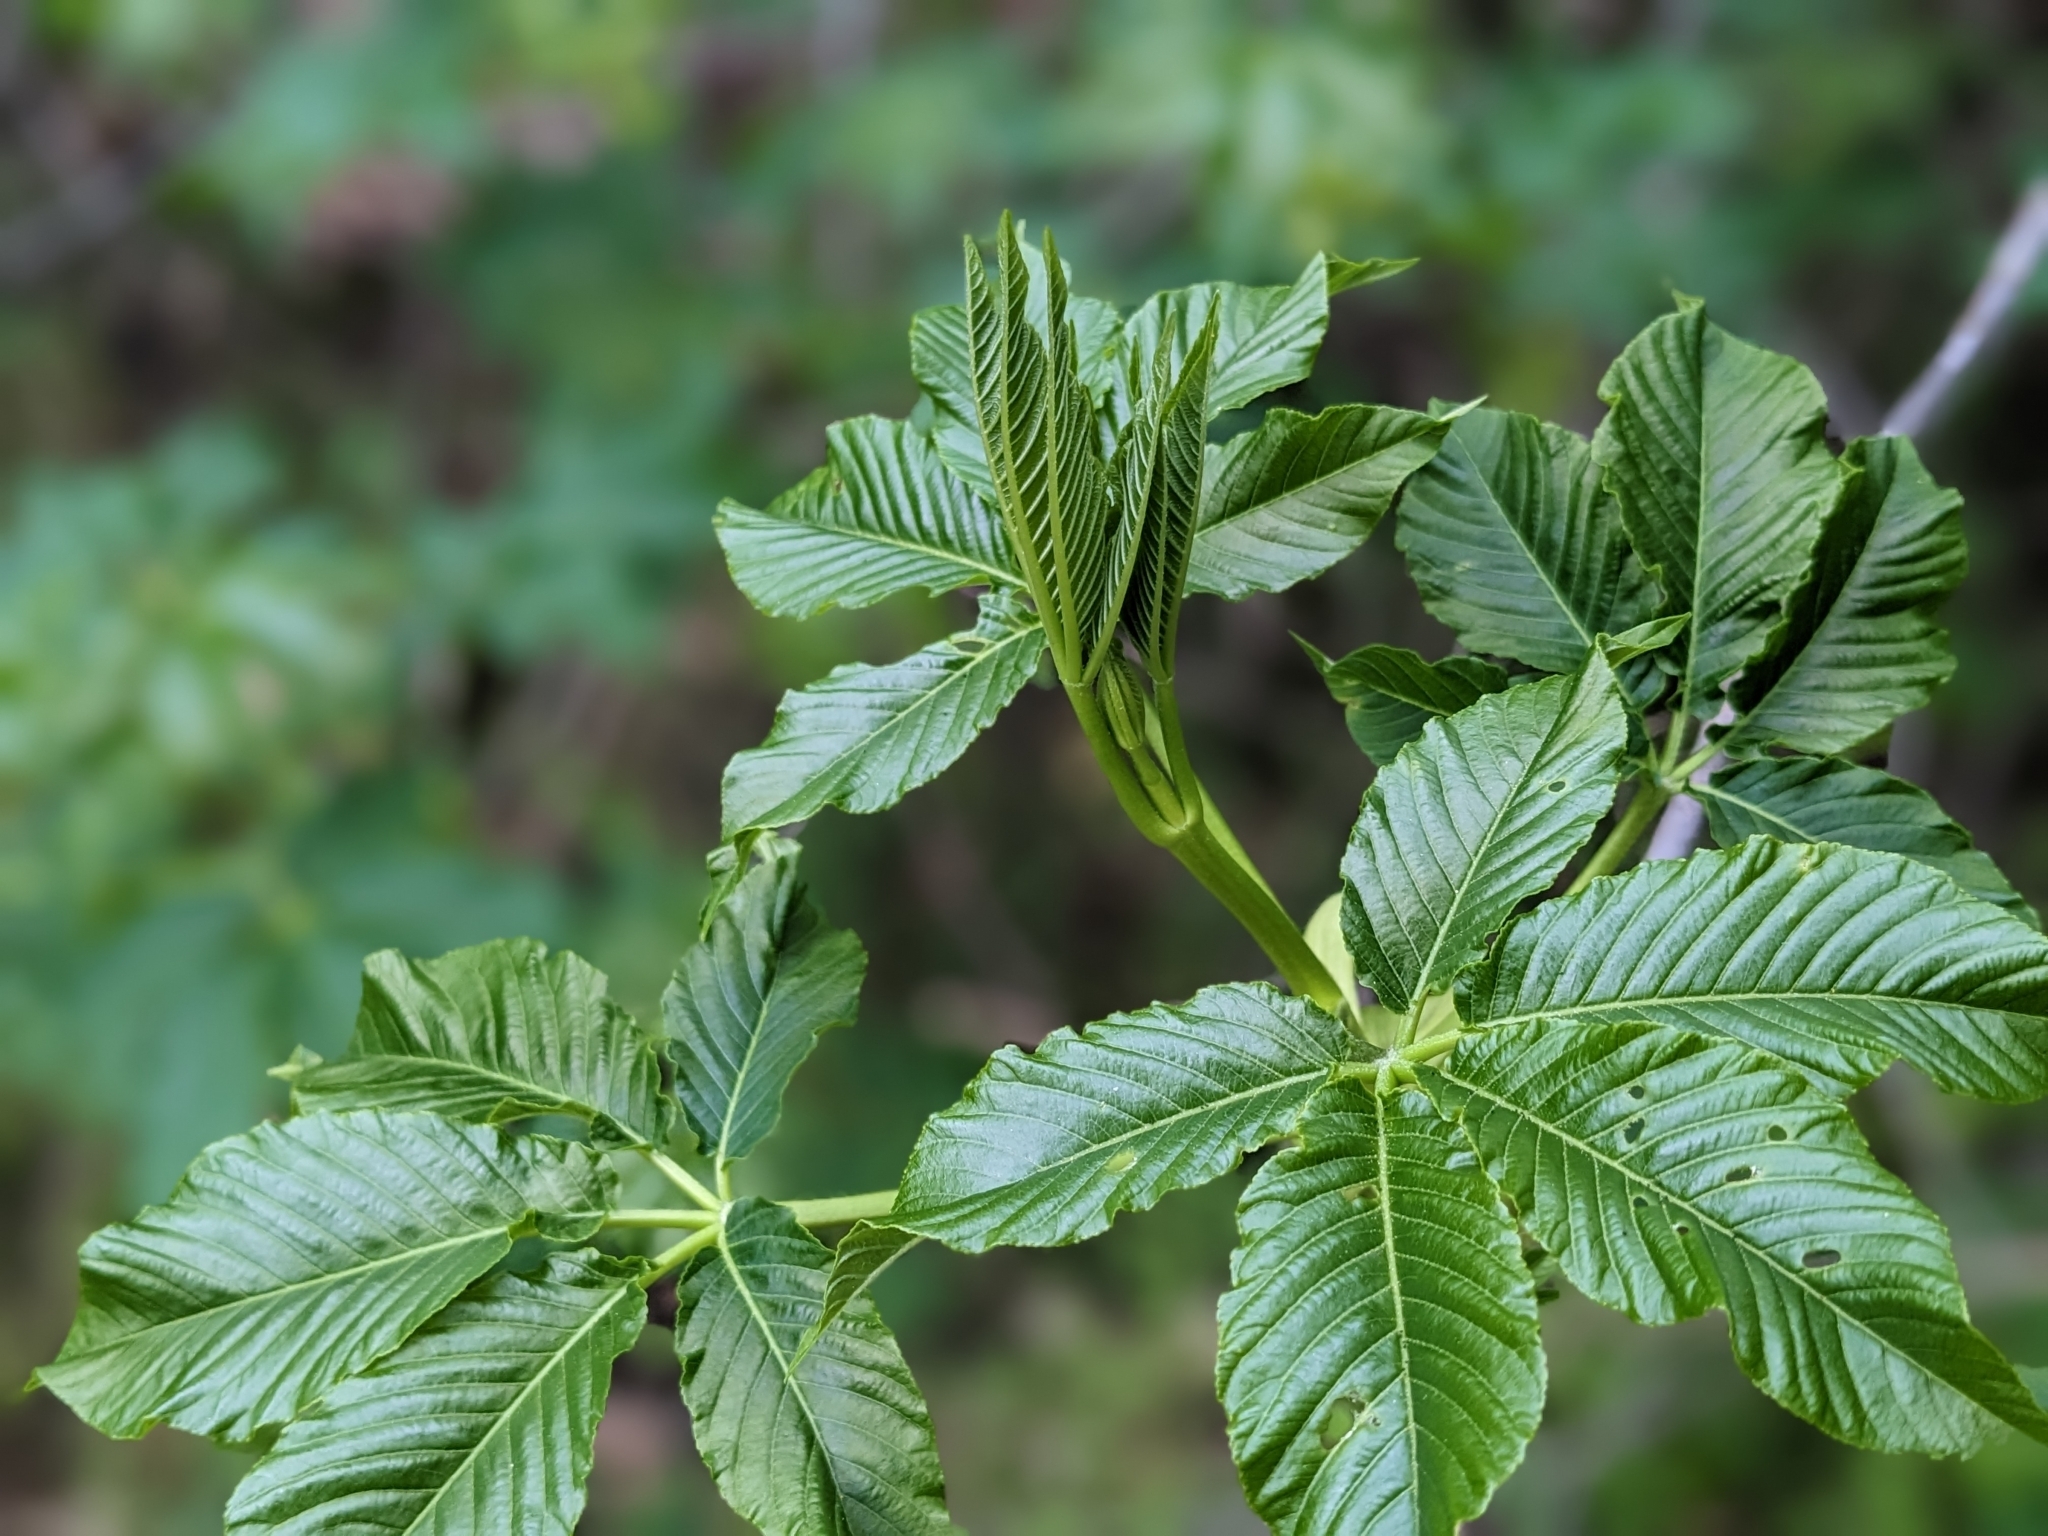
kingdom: Plantae
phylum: Tracheophyta
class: Magnoliopsida
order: Sapindales
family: Sapindaceae
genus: Aesculus
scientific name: Aesculus californica
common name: California buckeye
